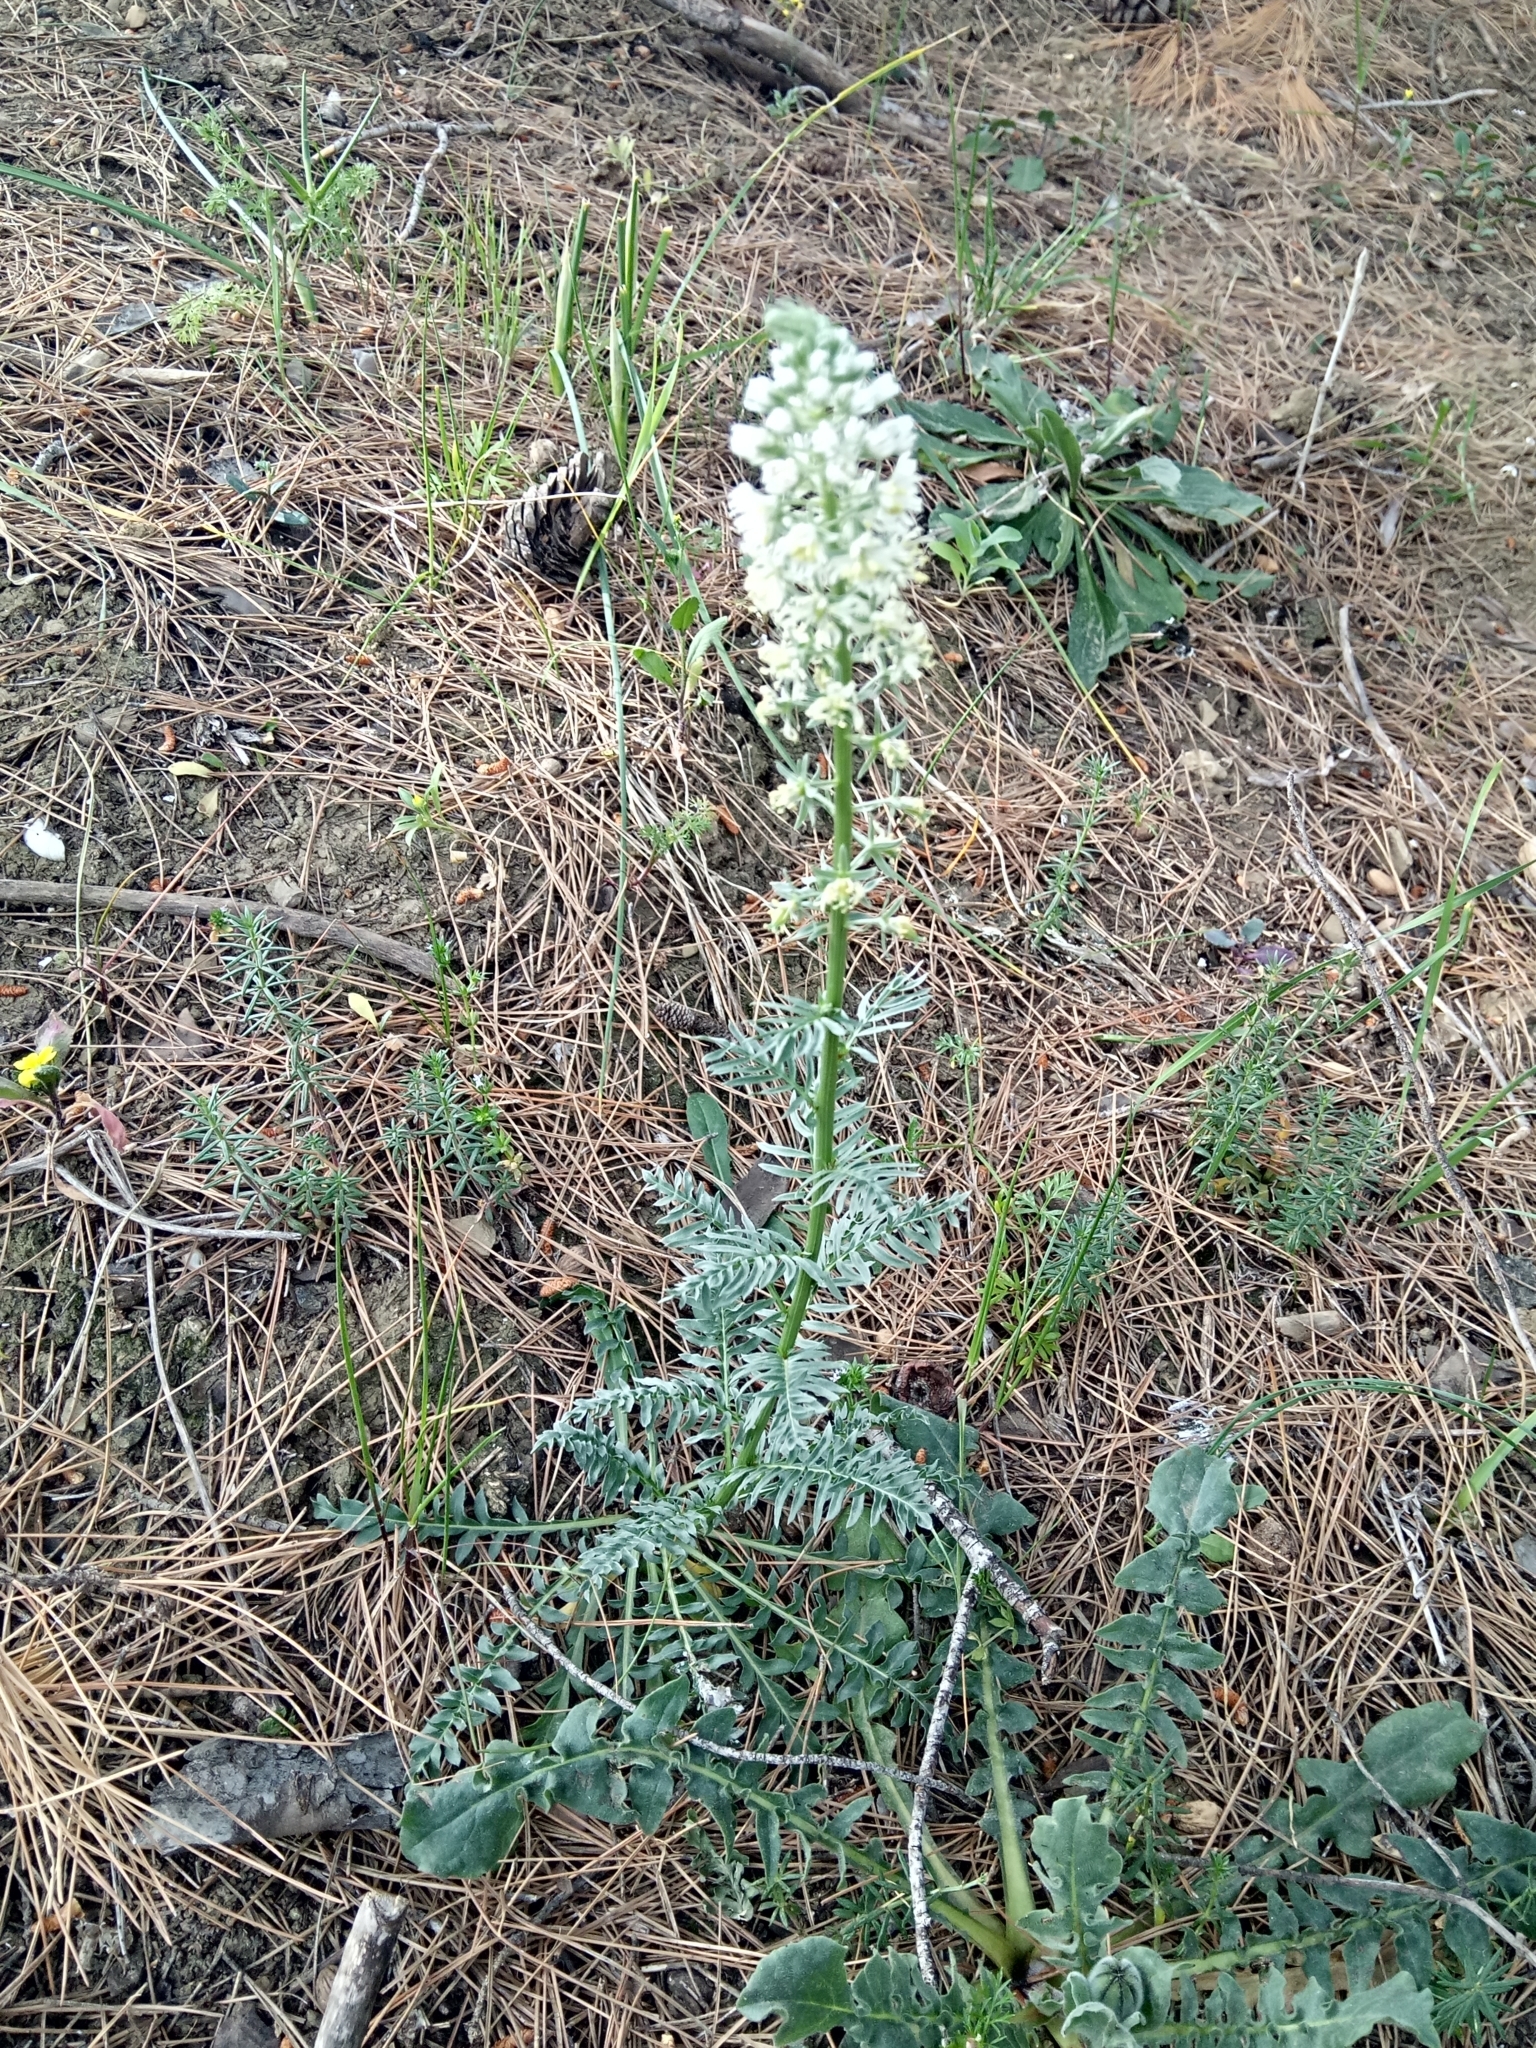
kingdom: Plantae
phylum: Tracheophyta
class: Magnoliopsida
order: Brassicales
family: Resedaceae
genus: Reseda
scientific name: Reseda alba
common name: White mignonette
